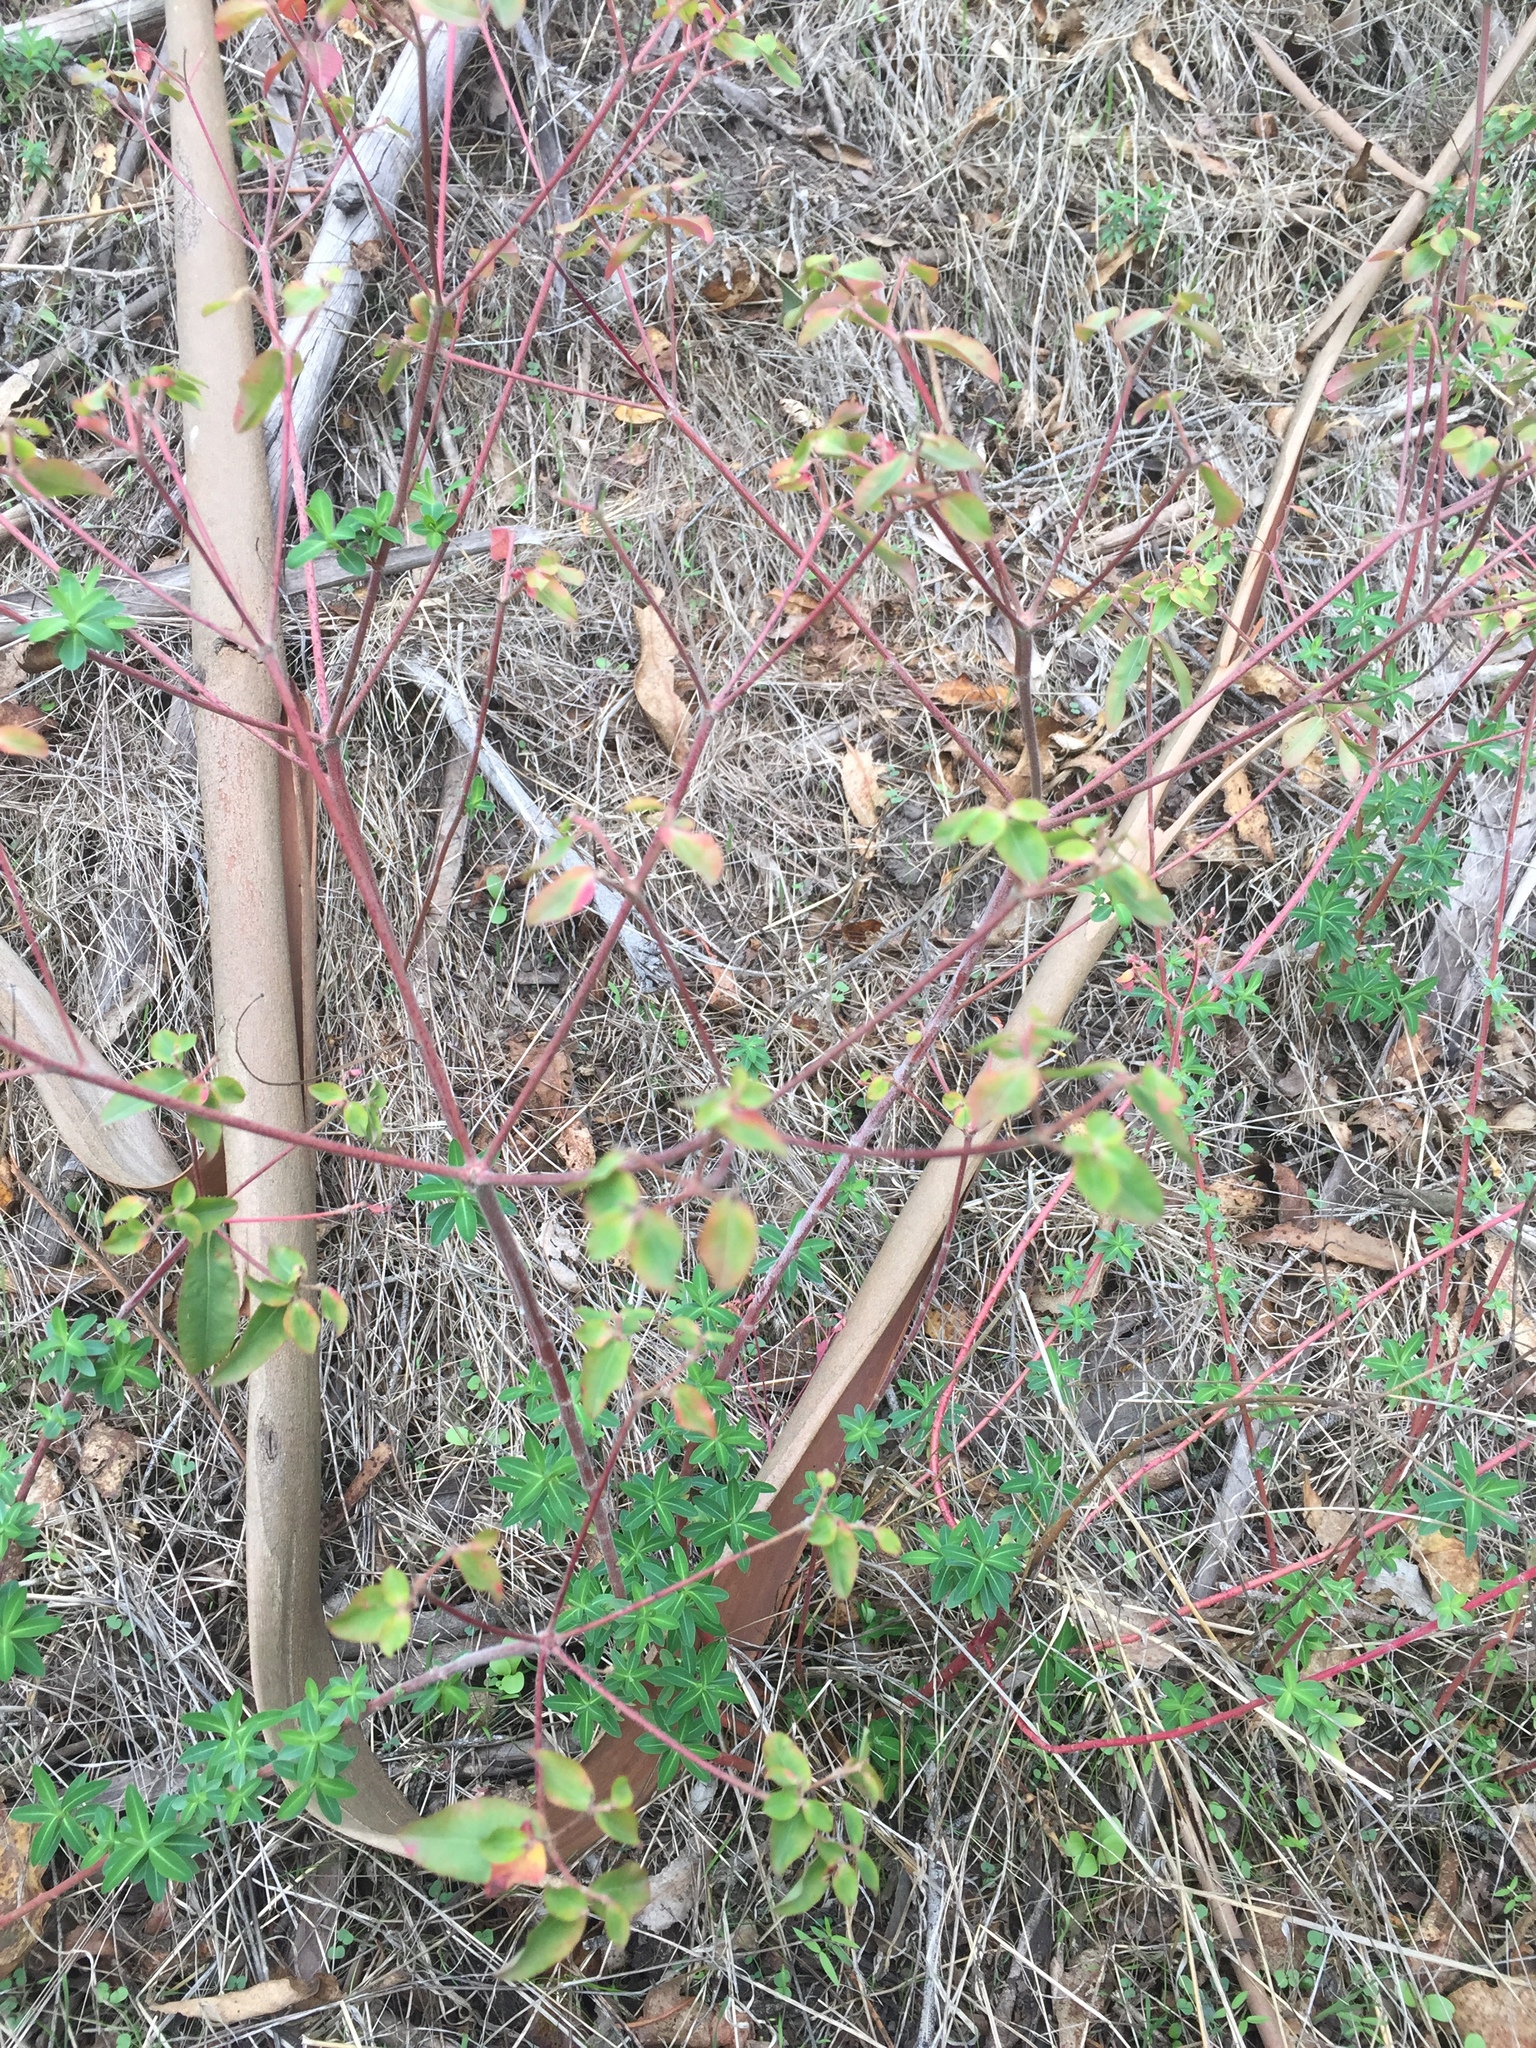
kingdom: Plantae
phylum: Tracheophyta
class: Magnoliopsida
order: Malpighiales
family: Euphorbiaceae
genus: Euphorbia
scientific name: Euphorbia oblongata
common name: Balkan spurge
